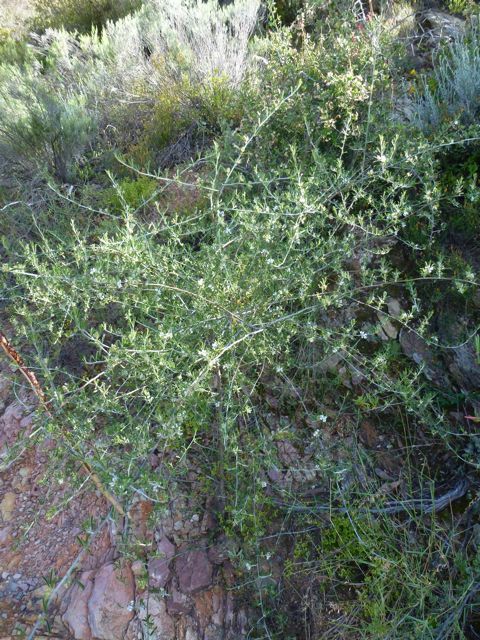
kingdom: Plantae
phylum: Tracheophyta
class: Magnoliopsida
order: Fabales
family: Fabaceae
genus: Psoralea
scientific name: Psoralea spissa
